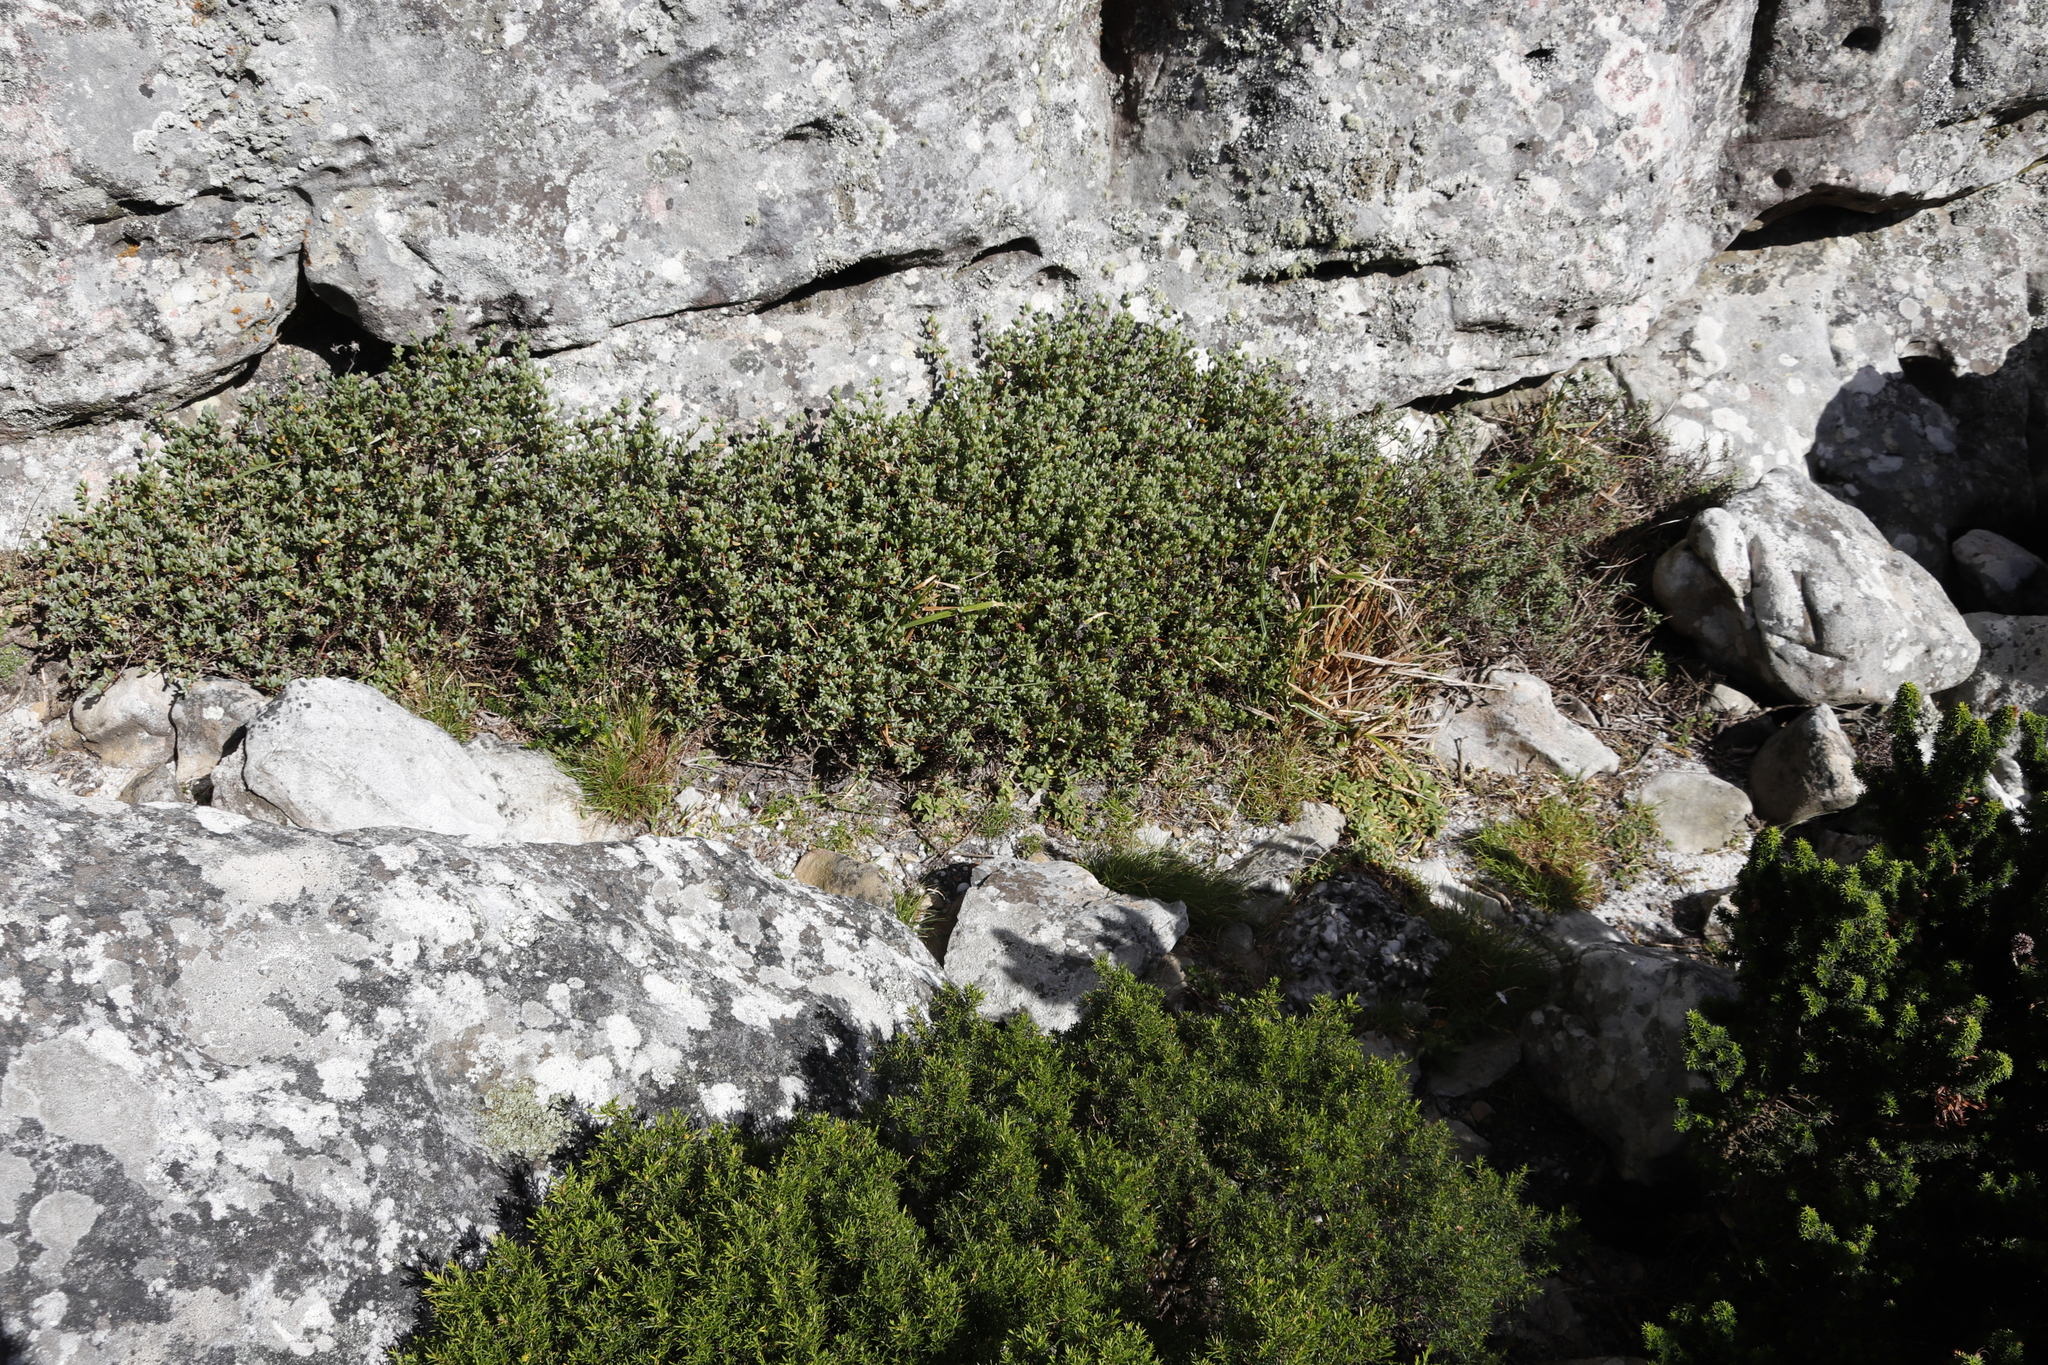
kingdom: Plantae
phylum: Tracheophyta
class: Magnoliopsida
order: Caryophyllales
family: Aizoaceae
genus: Oscularia
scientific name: Oscularia falciformis
